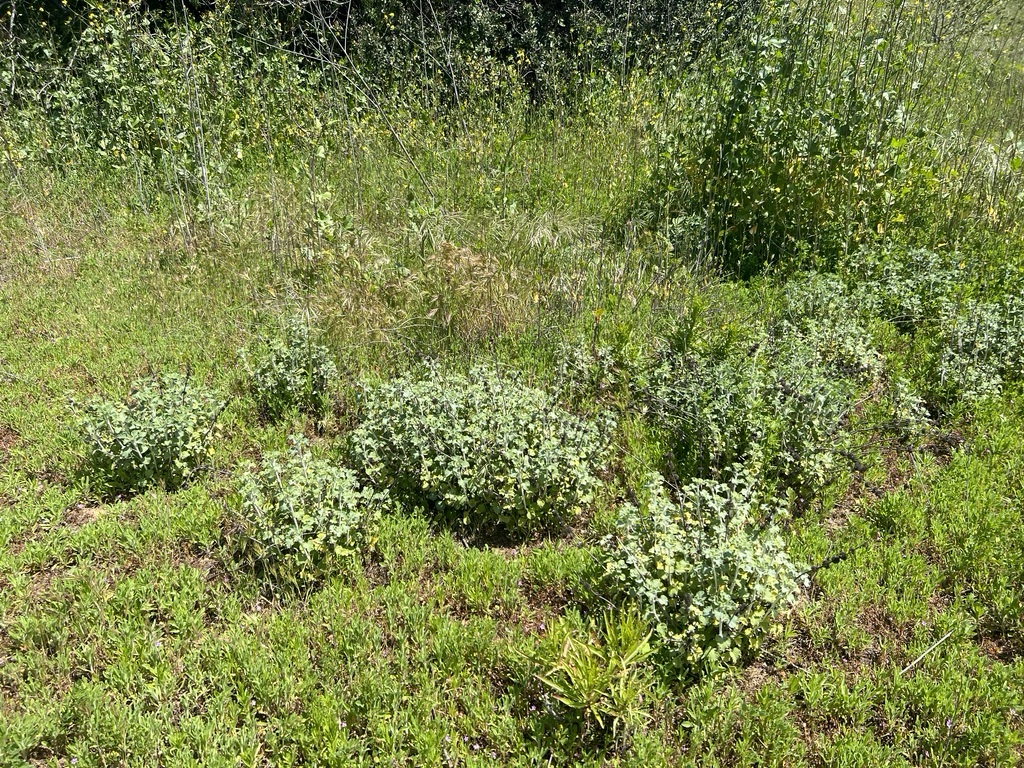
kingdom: Plantae
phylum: Tracheophyta
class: Magnoliopsida
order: Lamiales
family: Lamiaceae
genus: Marrubium
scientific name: Marrubium vulgare
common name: Horehound
